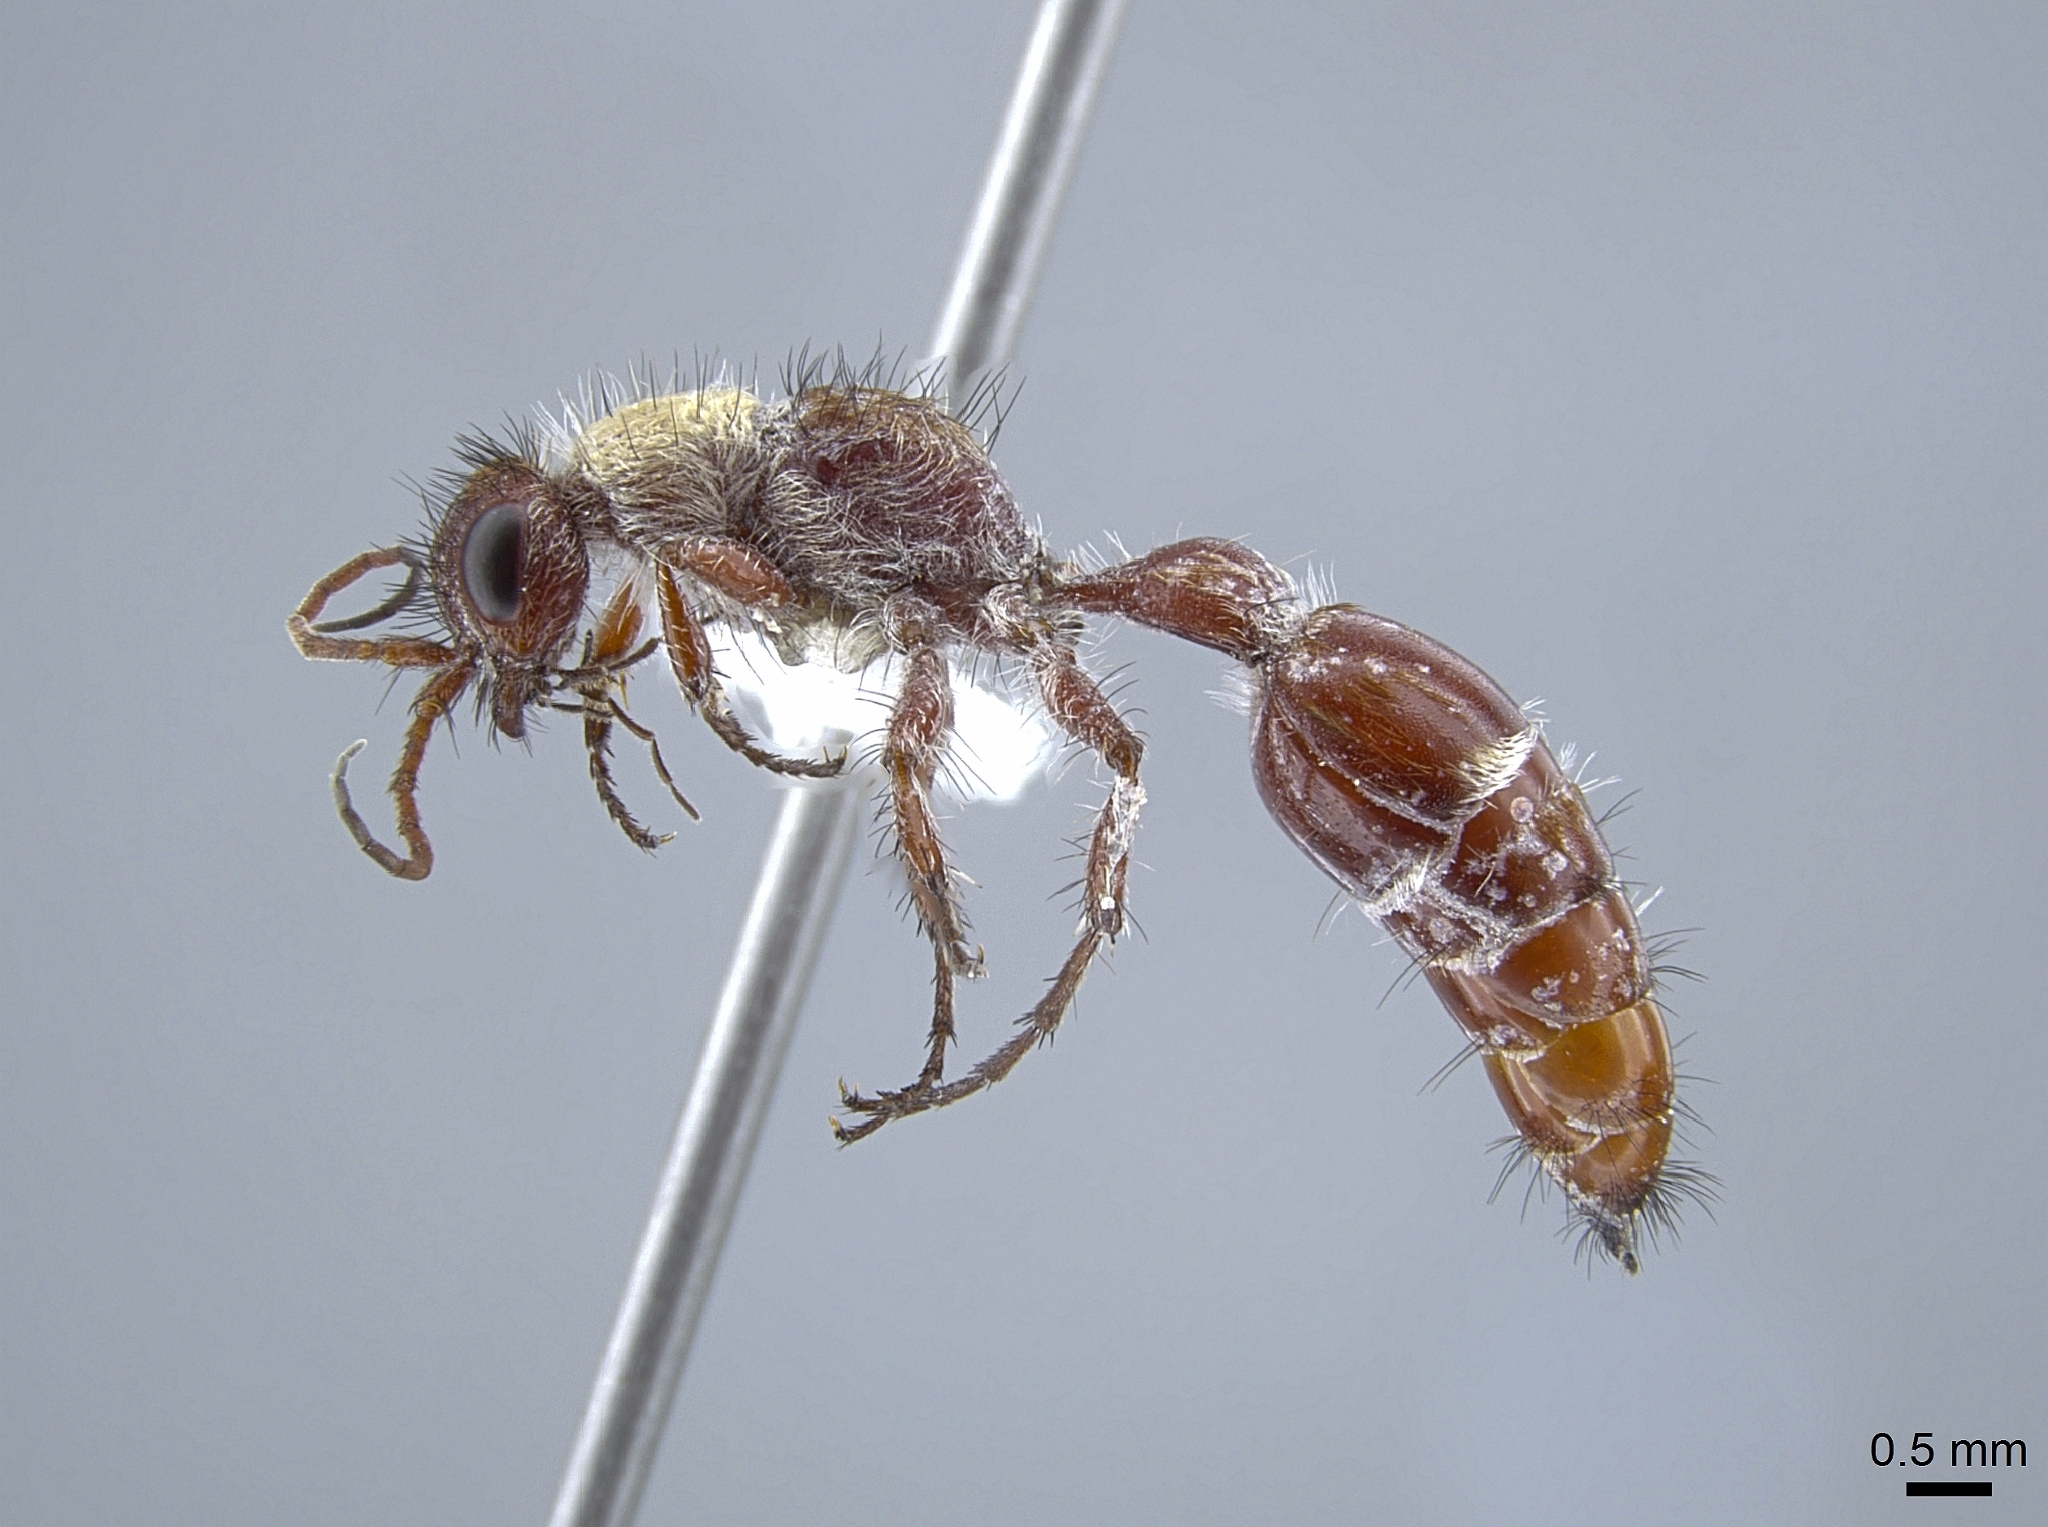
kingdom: Animalia
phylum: Arthropoda
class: Insecta
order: Hymenoptera
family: Mutillidae
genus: Typhoctes
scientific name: Typhoctes
